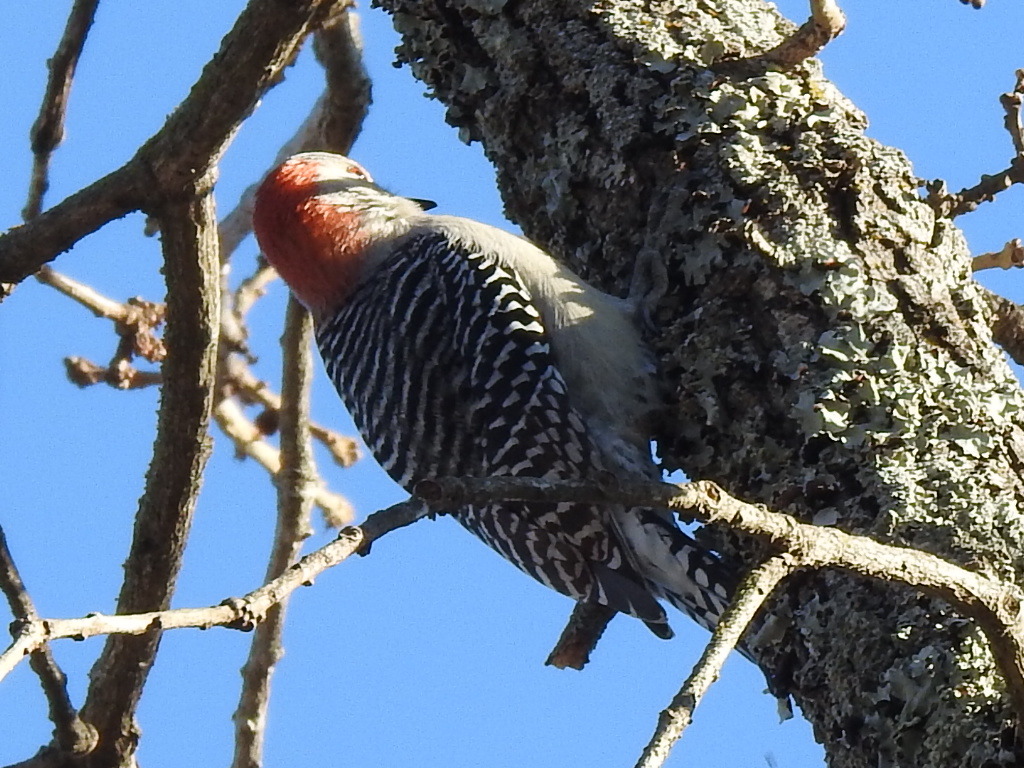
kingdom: Animalia
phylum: Chordata
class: Aves
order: Piciformes
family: Picidae
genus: Melanerpes
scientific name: Melanerpes carolinus
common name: Red-bellied woodpecker
